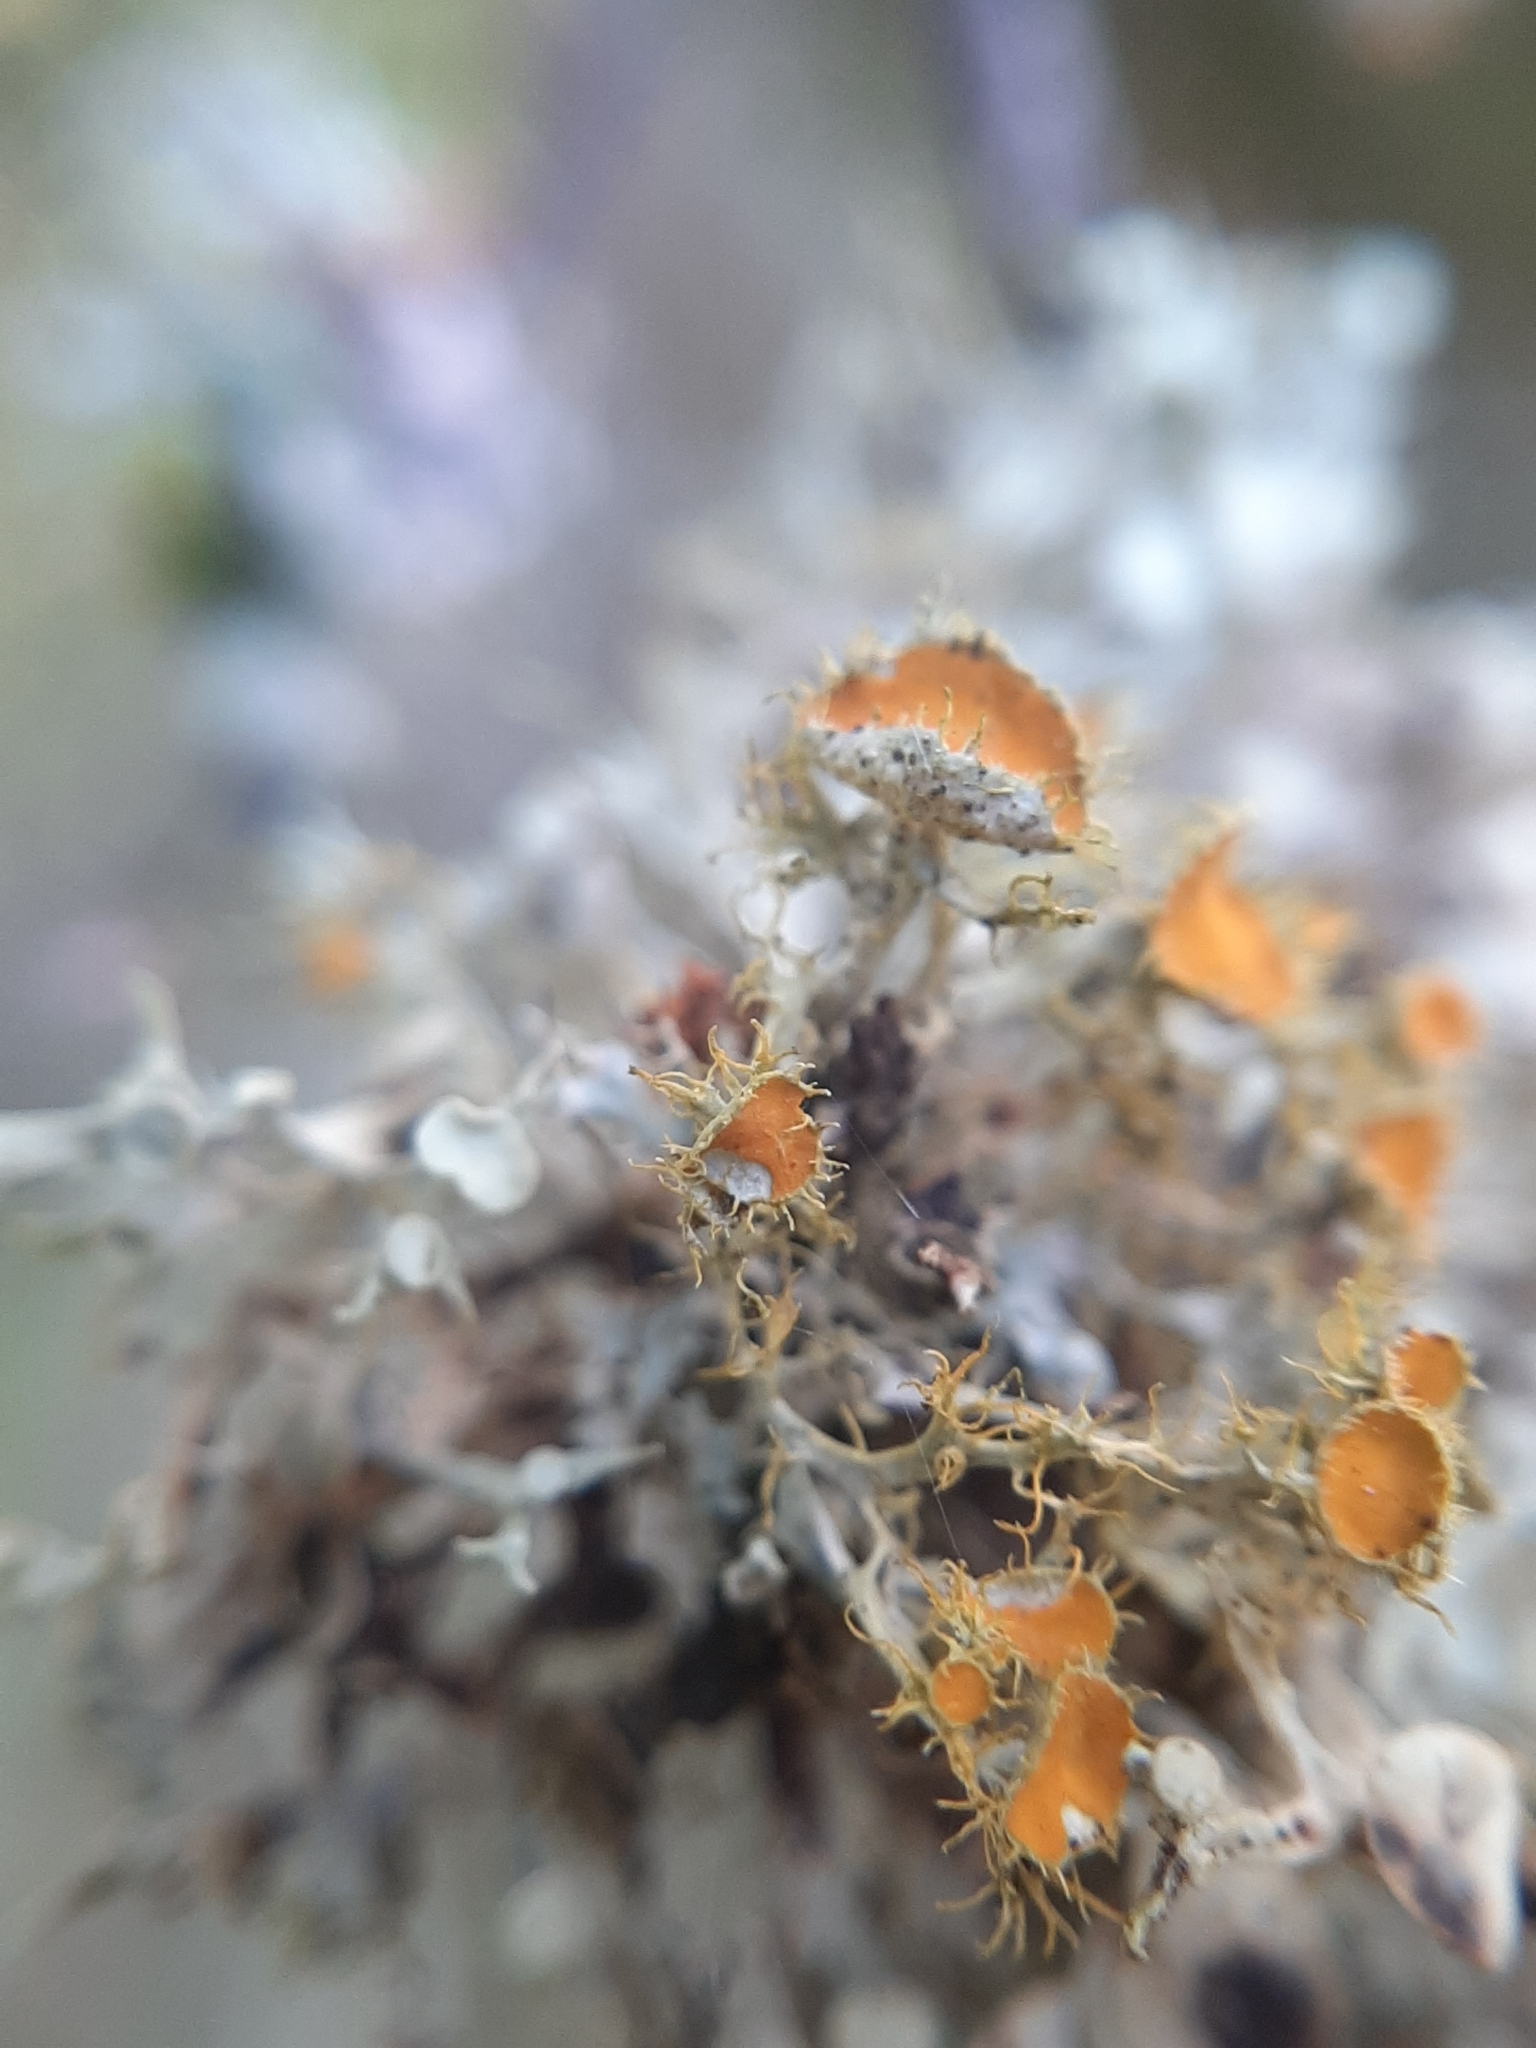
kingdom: Fungi
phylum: Ascomycota
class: Lecanoromycetes
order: Teloschistales
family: Teloschistaceae
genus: Niorma
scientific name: Niorma chrysophthalma
